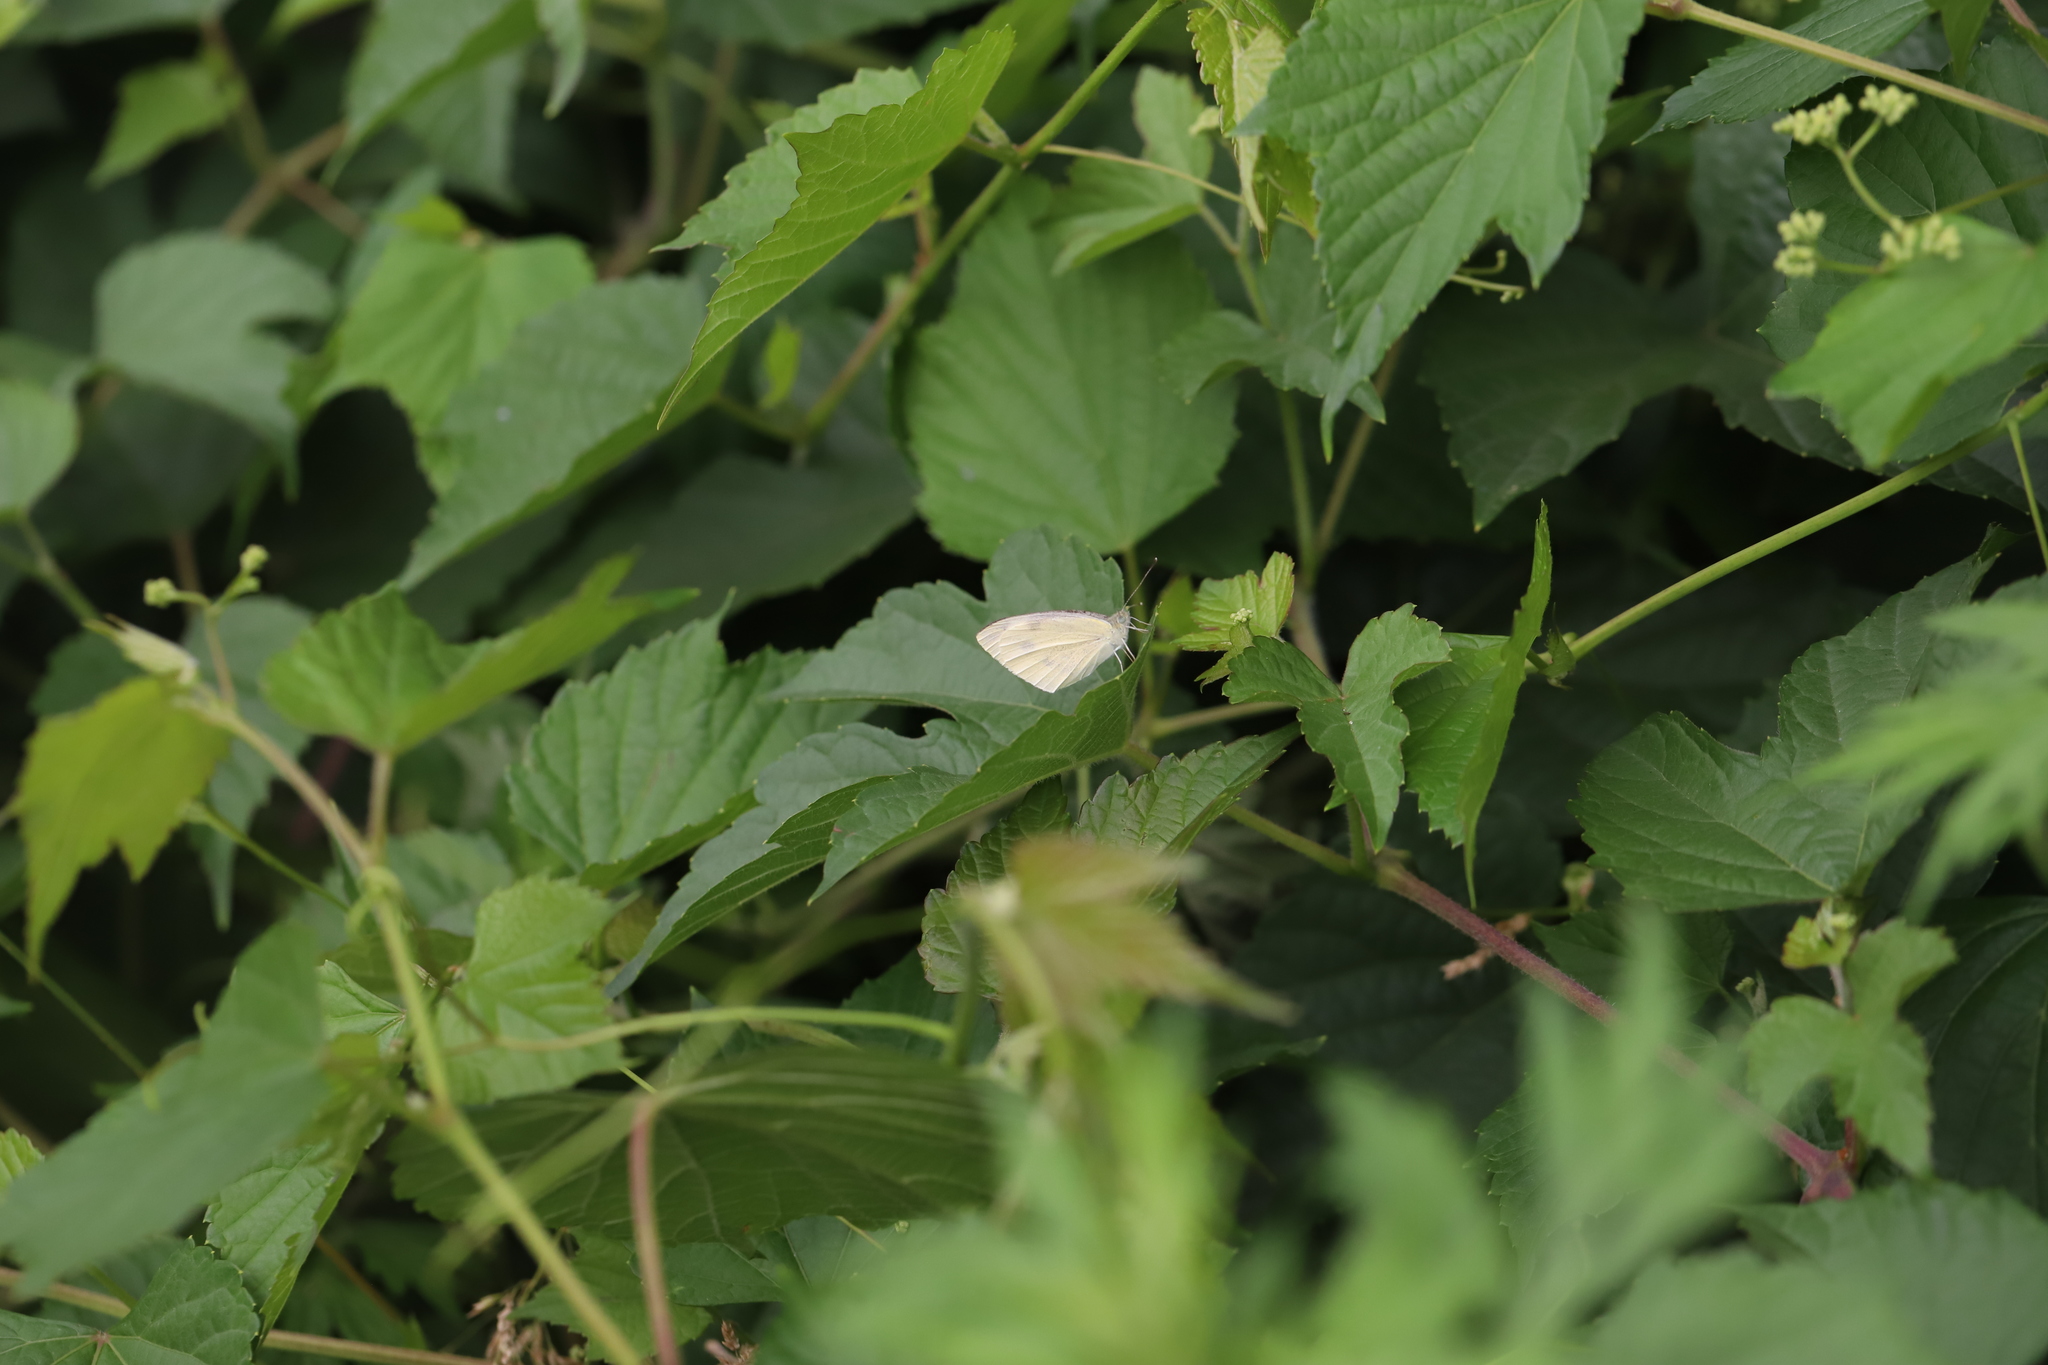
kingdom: Animalia
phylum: Arthropoda
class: Insecta
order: Lepidoptera
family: Pieridae
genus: Pieris
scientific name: Pieris rapae
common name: Small white
